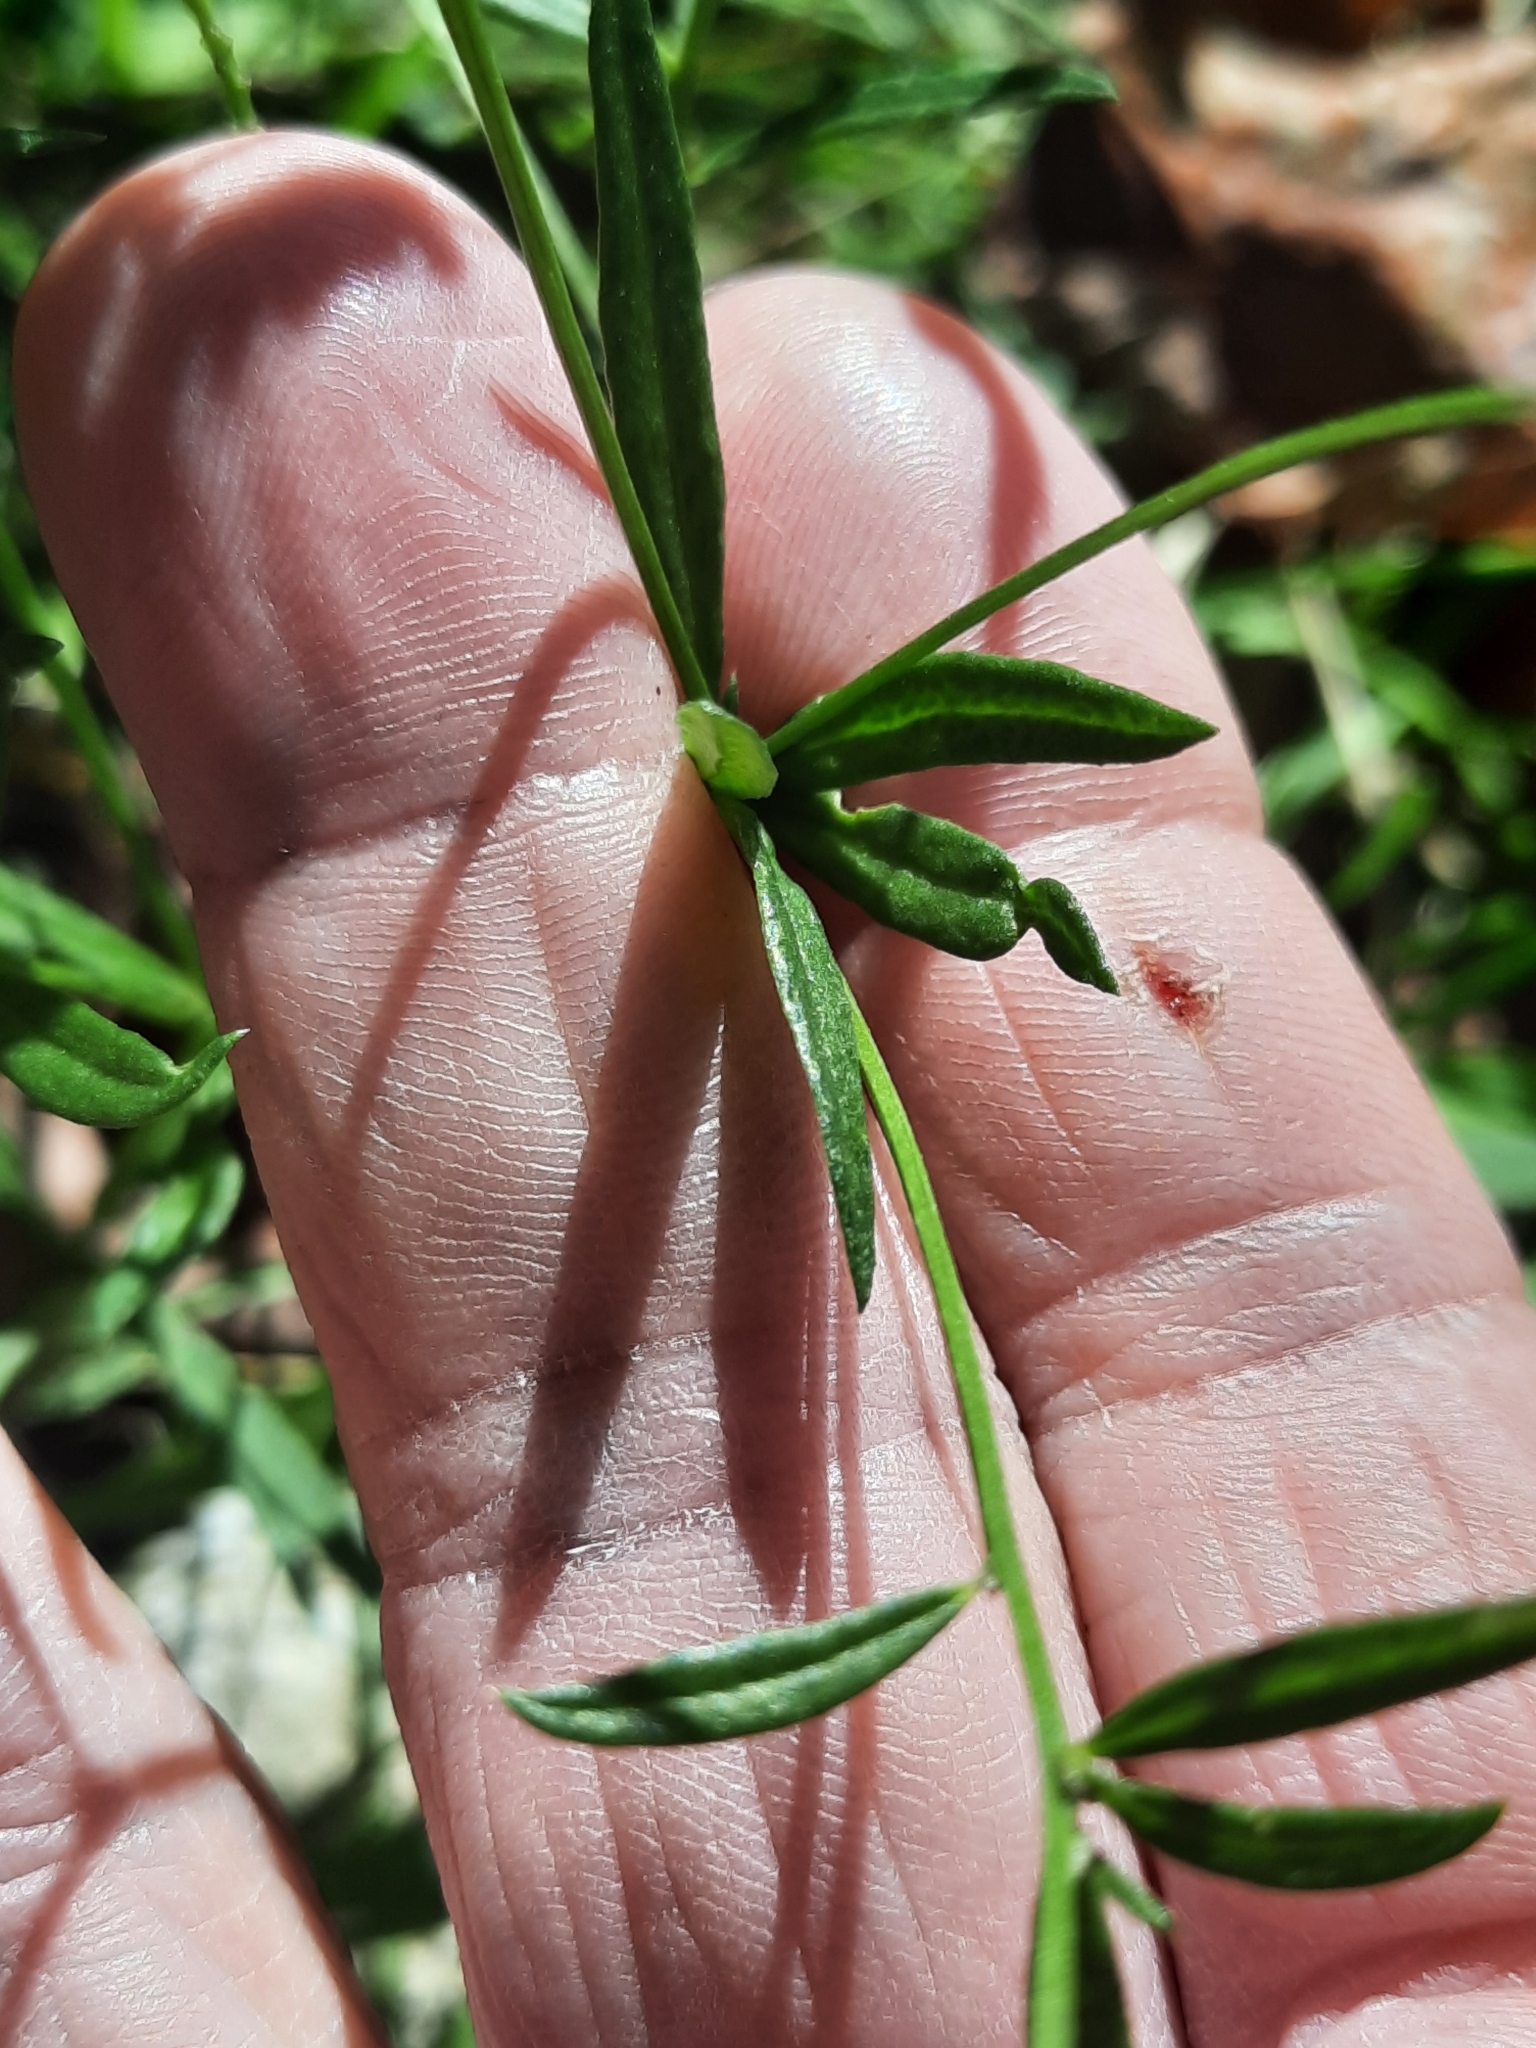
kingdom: Plantae
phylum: Tracheophyta
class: Magnoliopsida
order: Fabales
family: Polygalaceae
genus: Polygala
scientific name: Polygala verticillata
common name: Whorl milkwort
